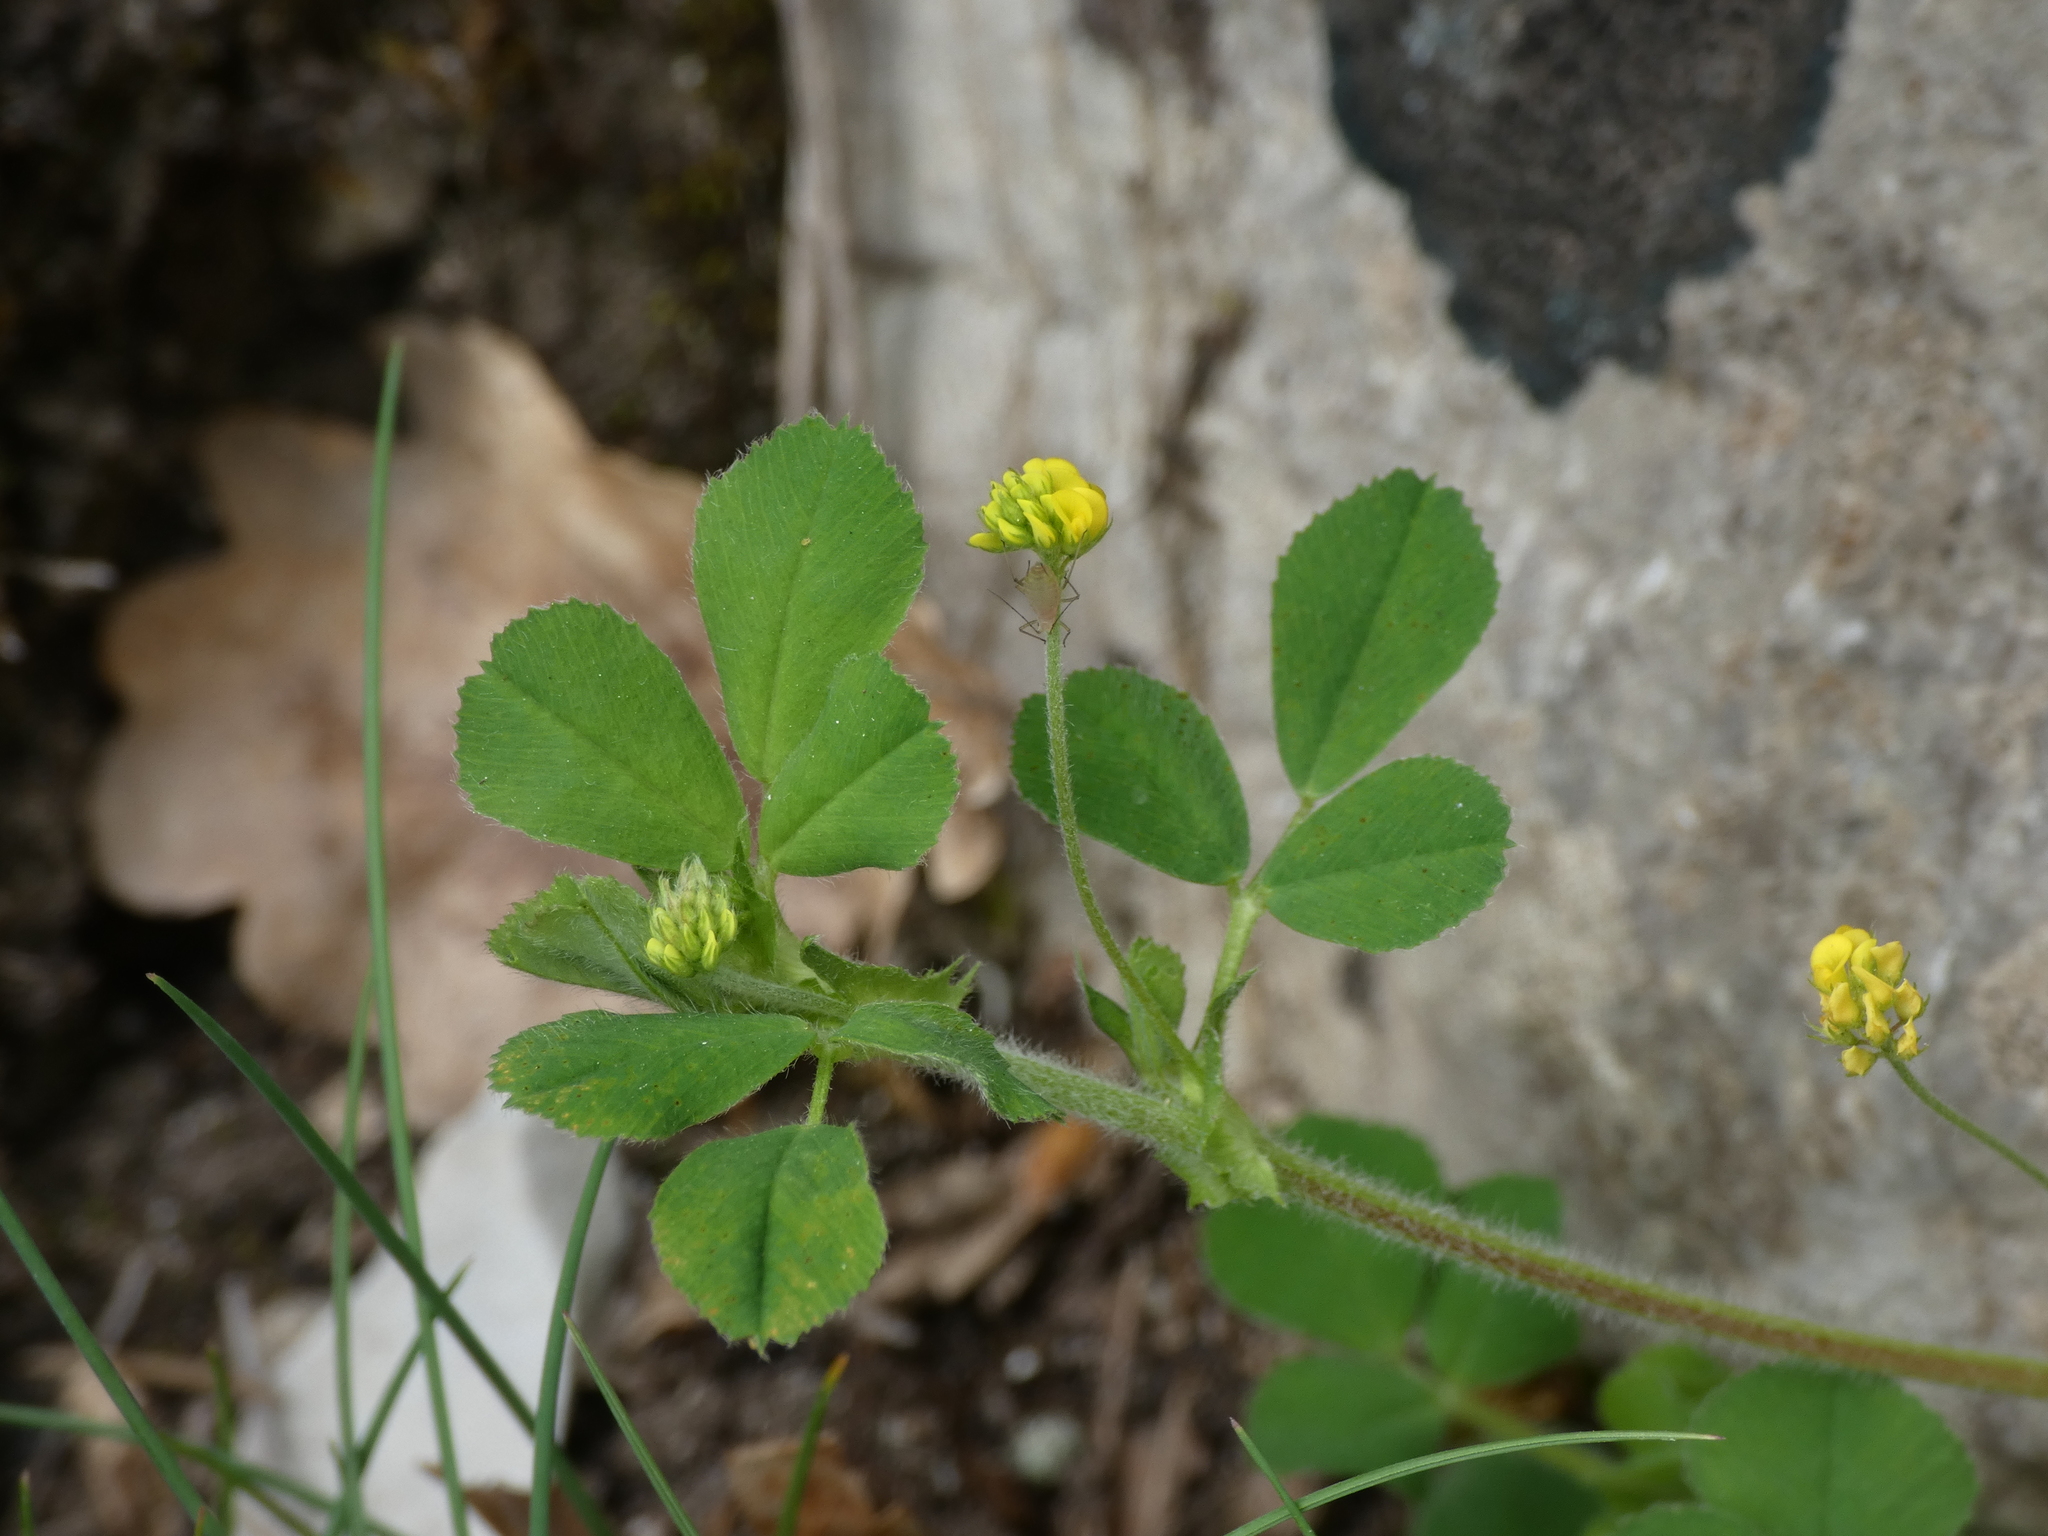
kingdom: Plantae
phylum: Tracheophyta
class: Magnoliopsida
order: Fabales
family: Fabaceae
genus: Medicago
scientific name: Medicago lupulina
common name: Black medick
